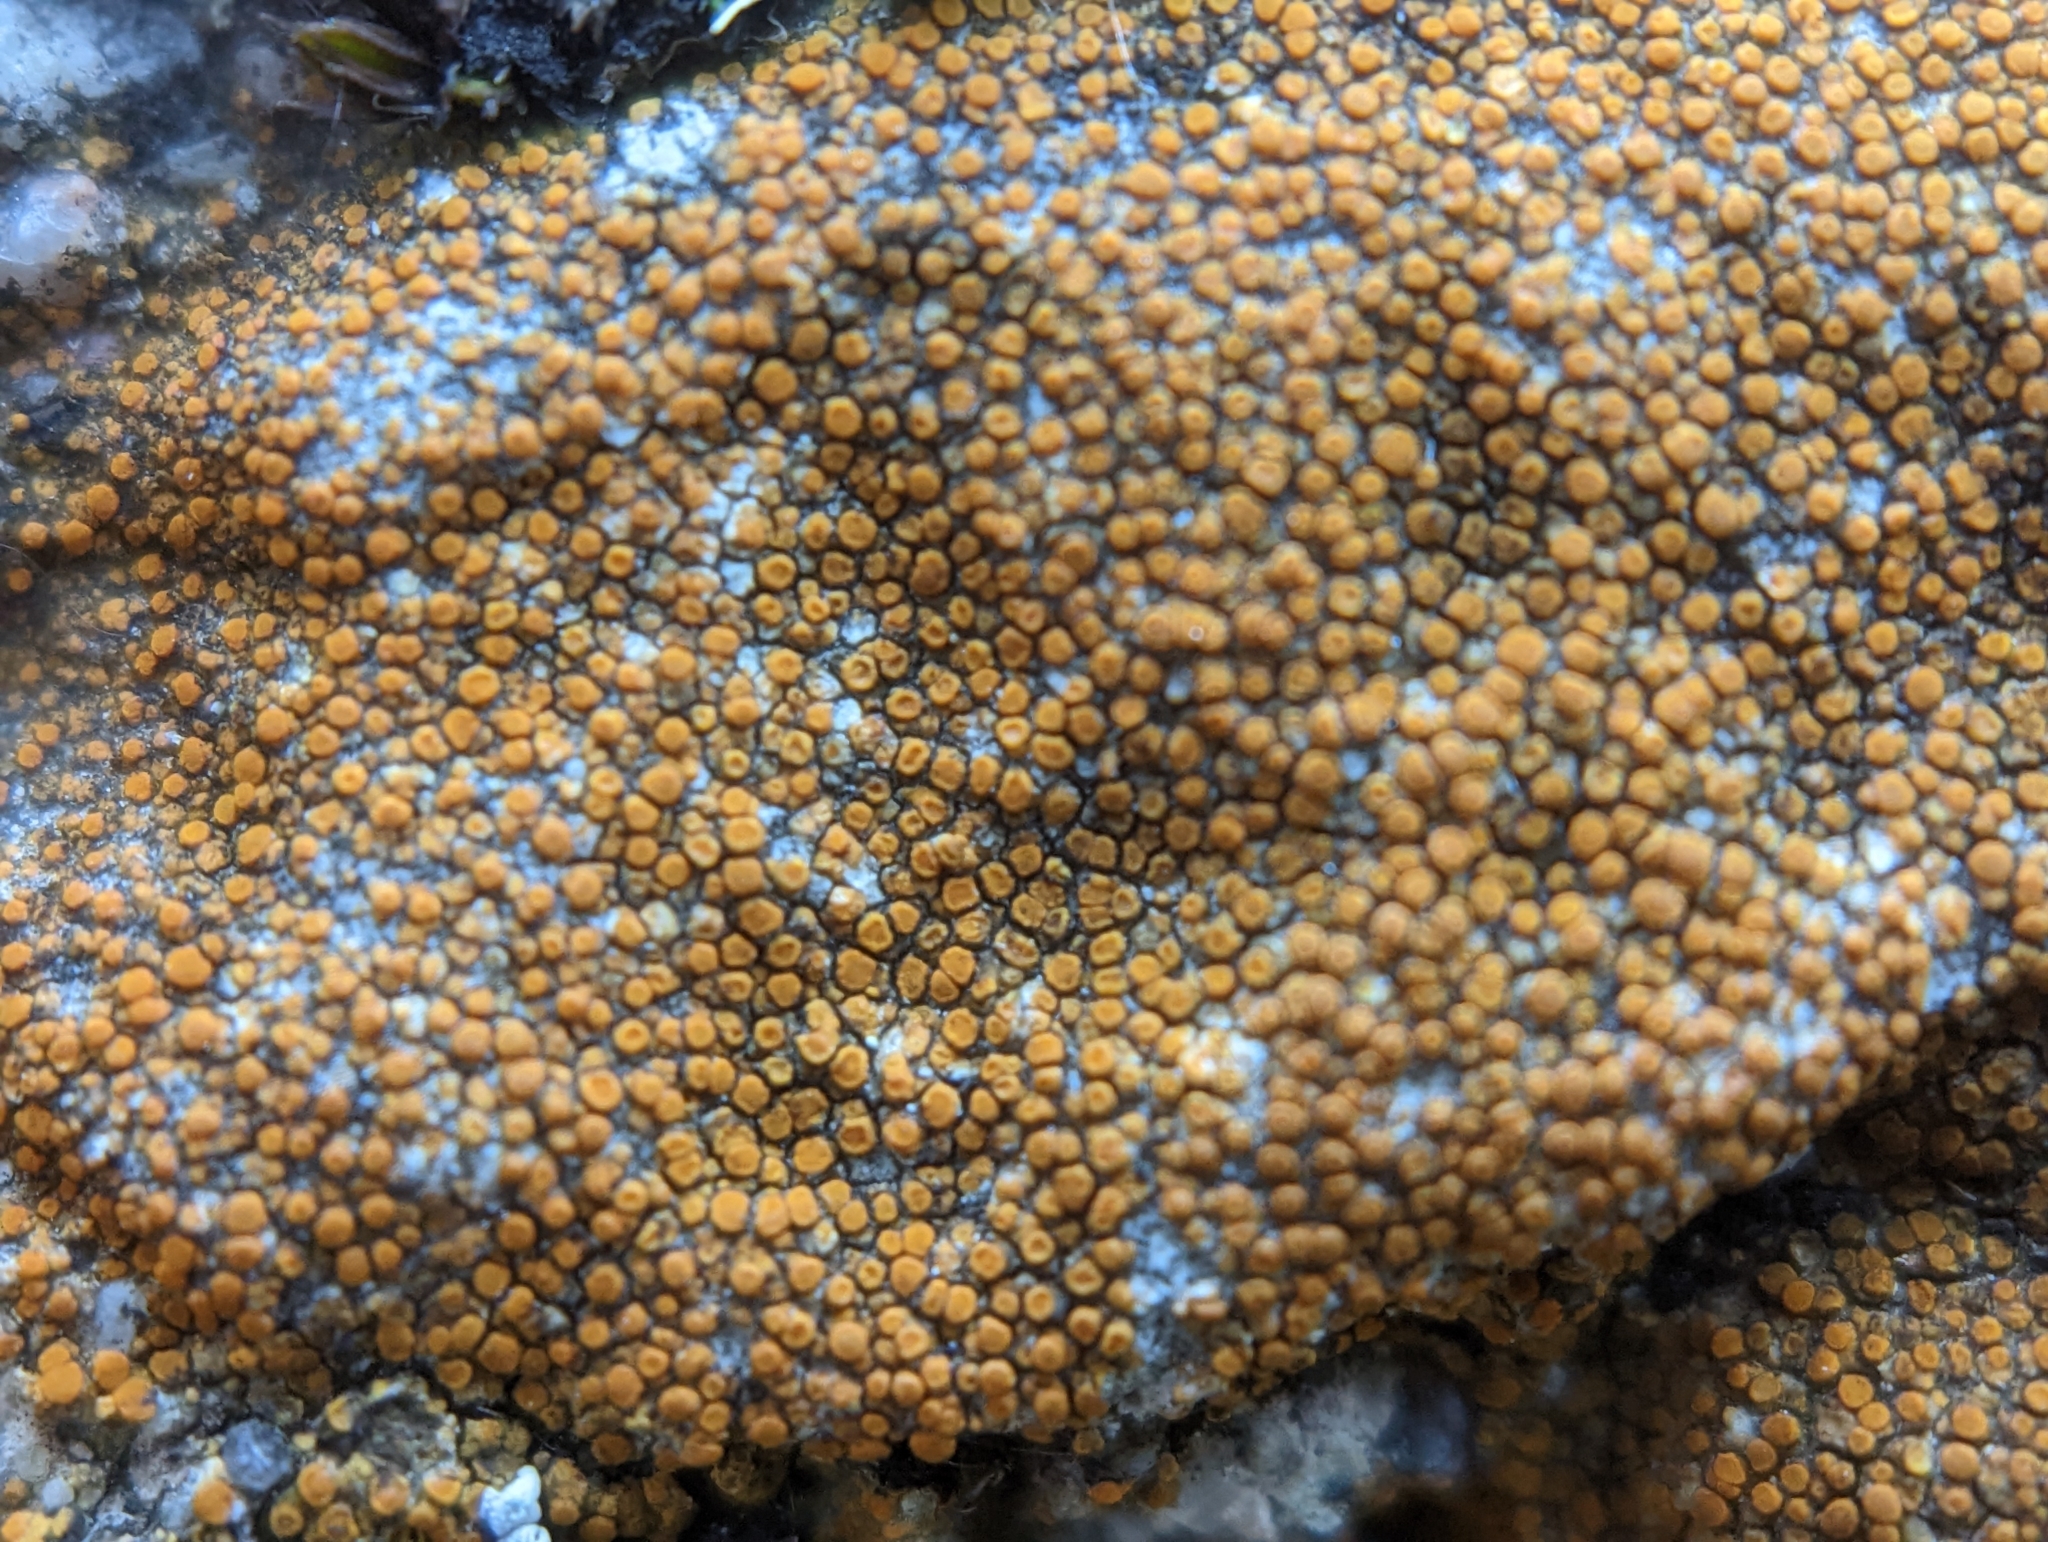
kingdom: Fungi
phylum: Ascomycota
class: Lecanoromycetes
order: Teloschistales
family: Teloschistaceae
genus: Xanthocarpia
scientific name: Xanthocarpia feracissima
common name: Sidewalk firedot
